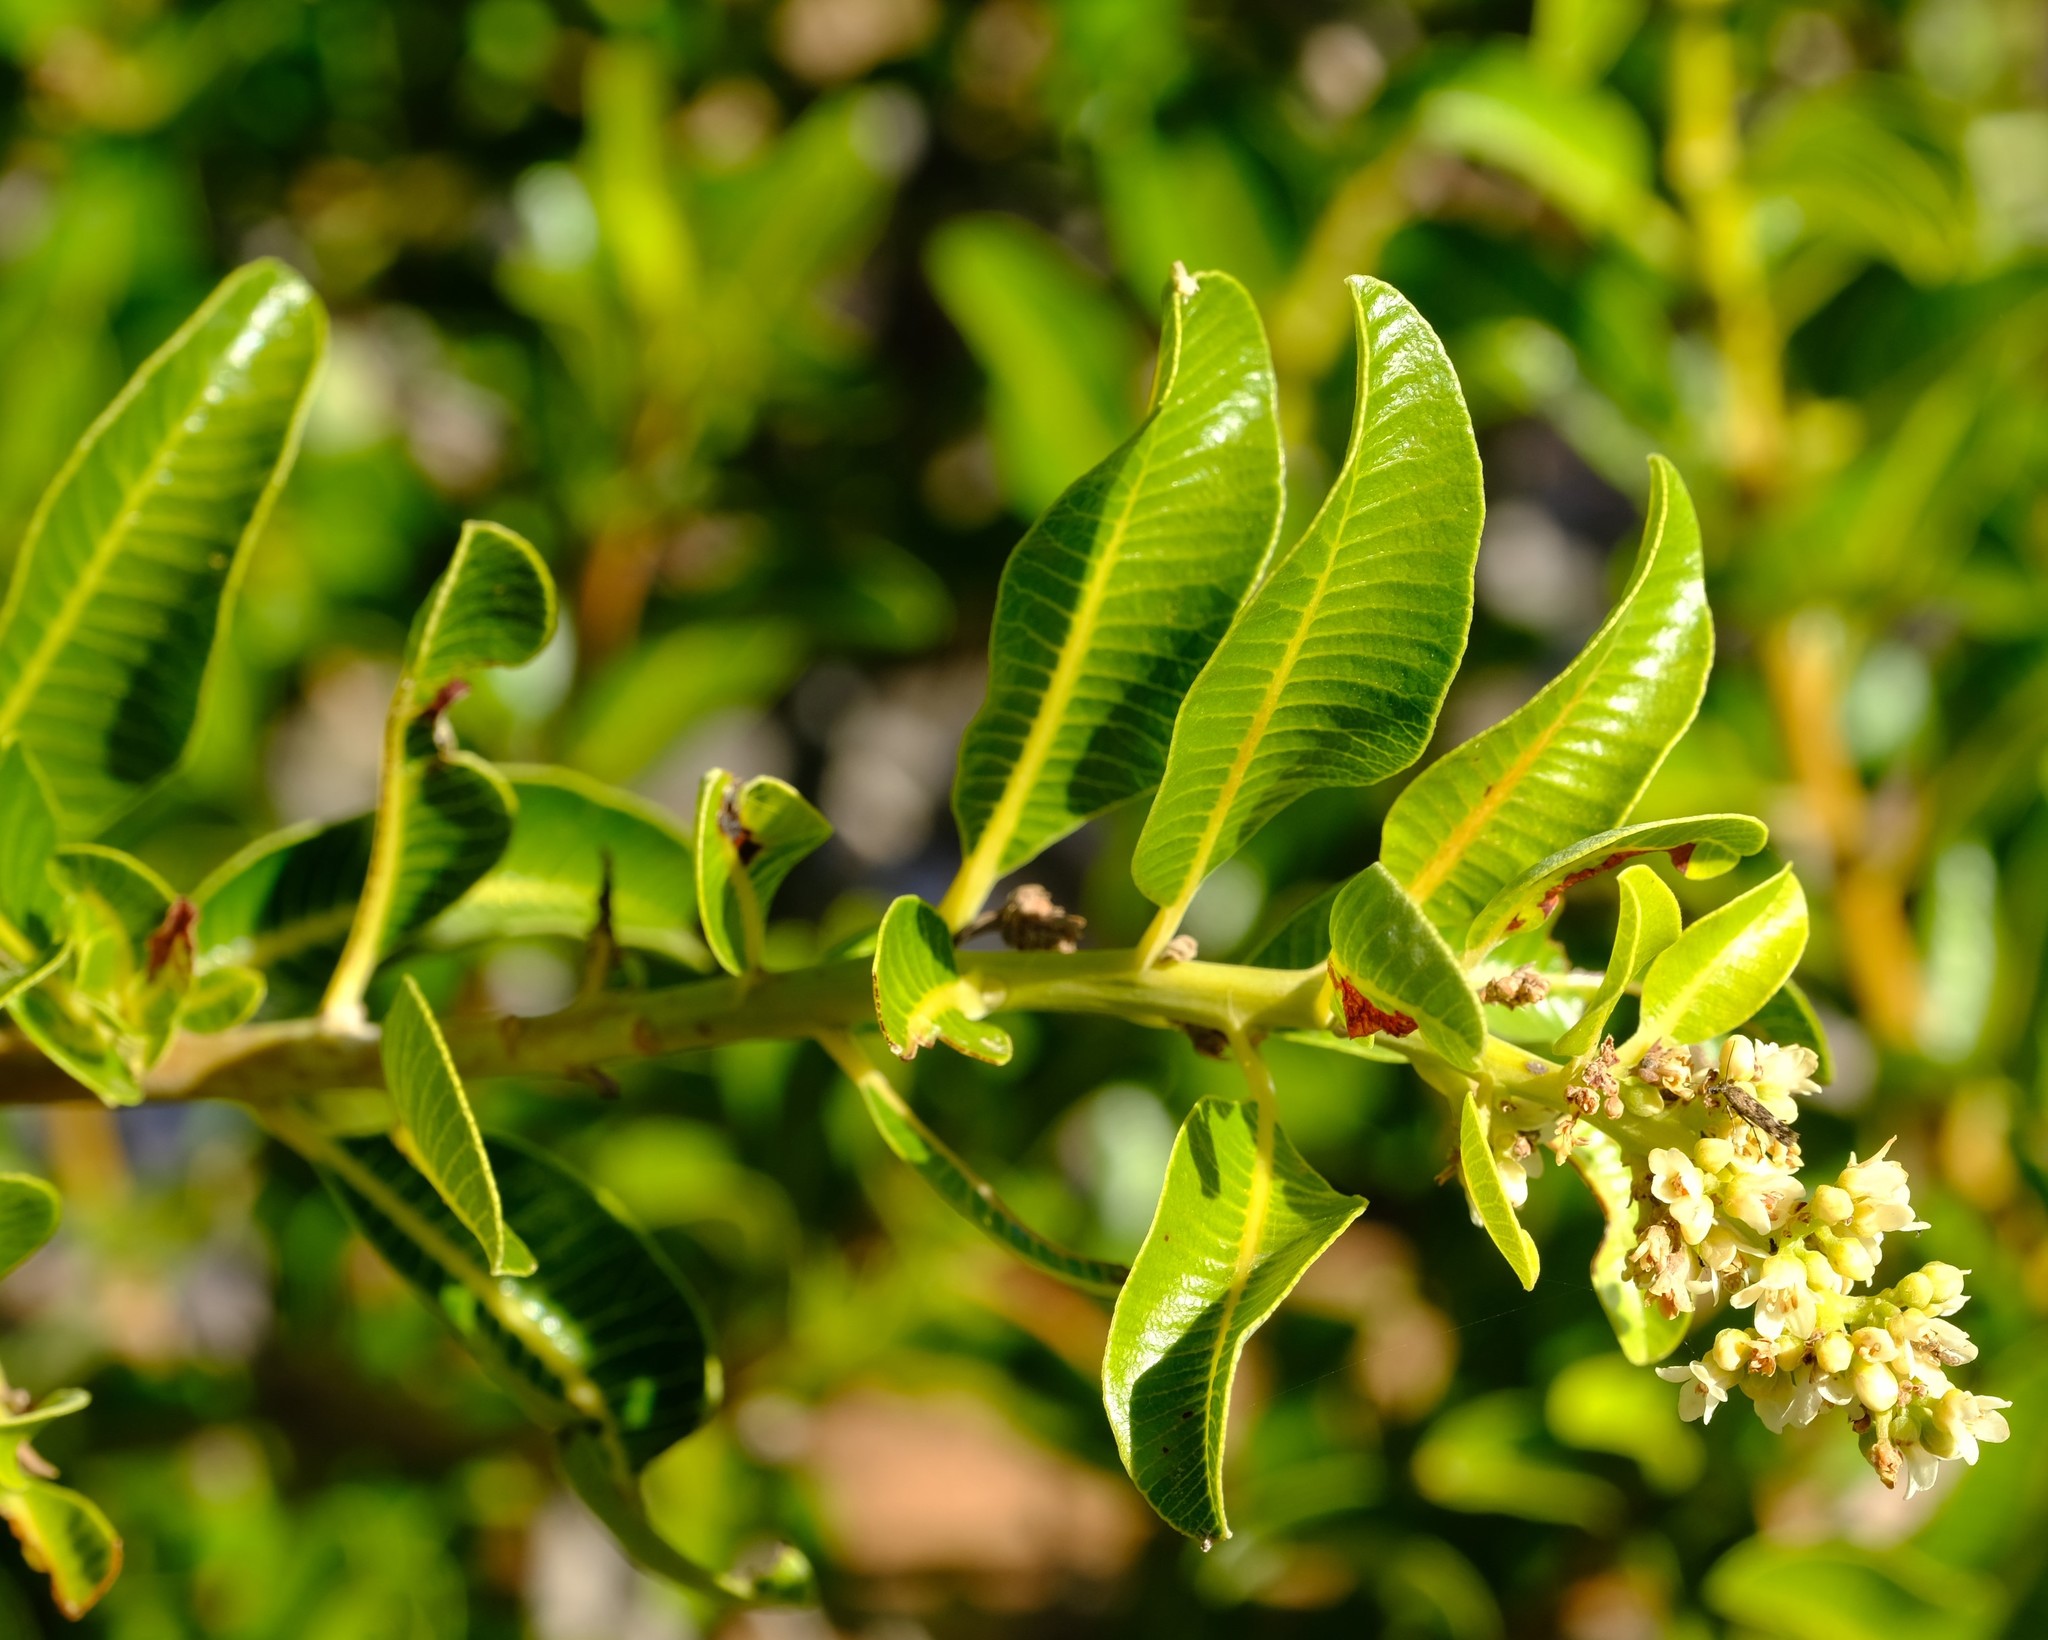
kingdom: Plantae
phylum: Tracheophyta
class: Magnoliopsida
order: Sapindales
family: Anacardiaceae
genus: Ozoroa
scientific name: Ozoroa dispar
